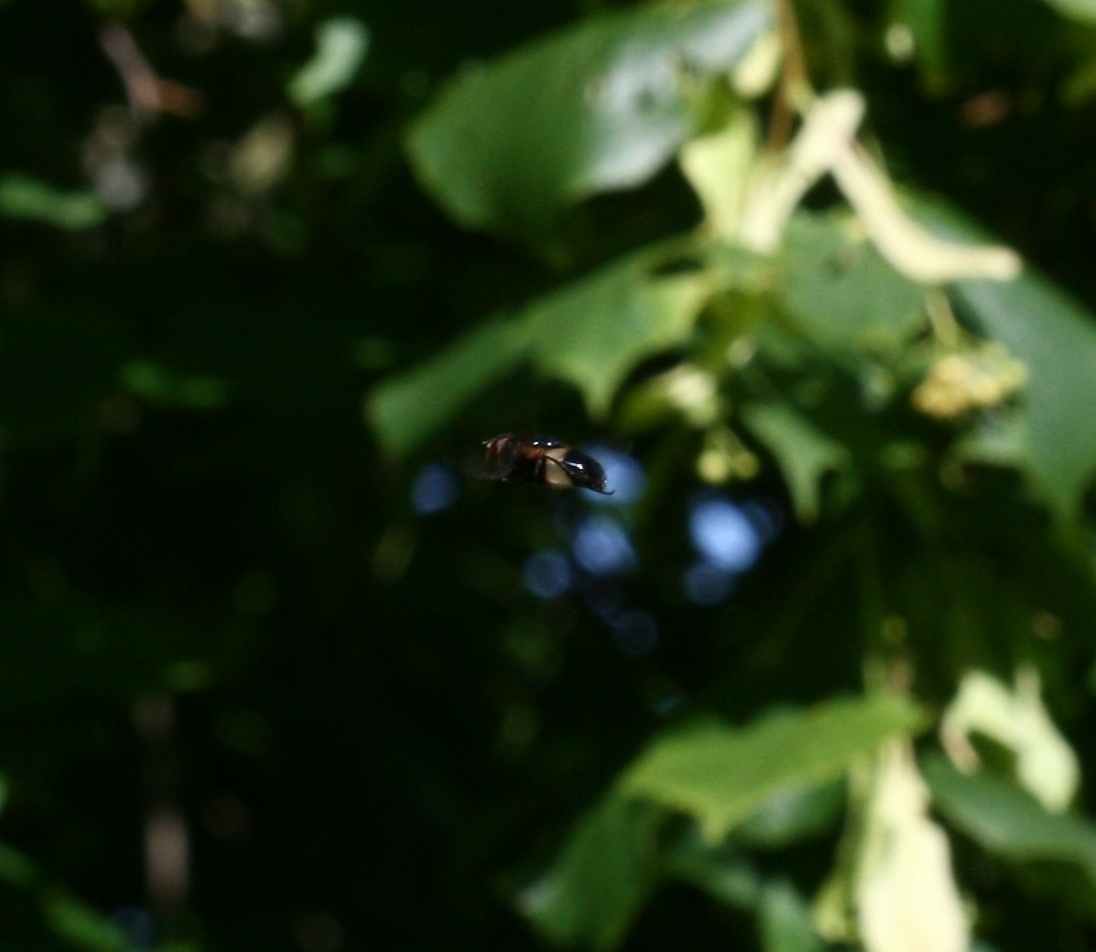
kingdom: Animalia
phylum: Arthropoda
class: Insecta
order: Diptera
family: Syrphidae
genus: Volucella
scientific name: Volucella pellucens
